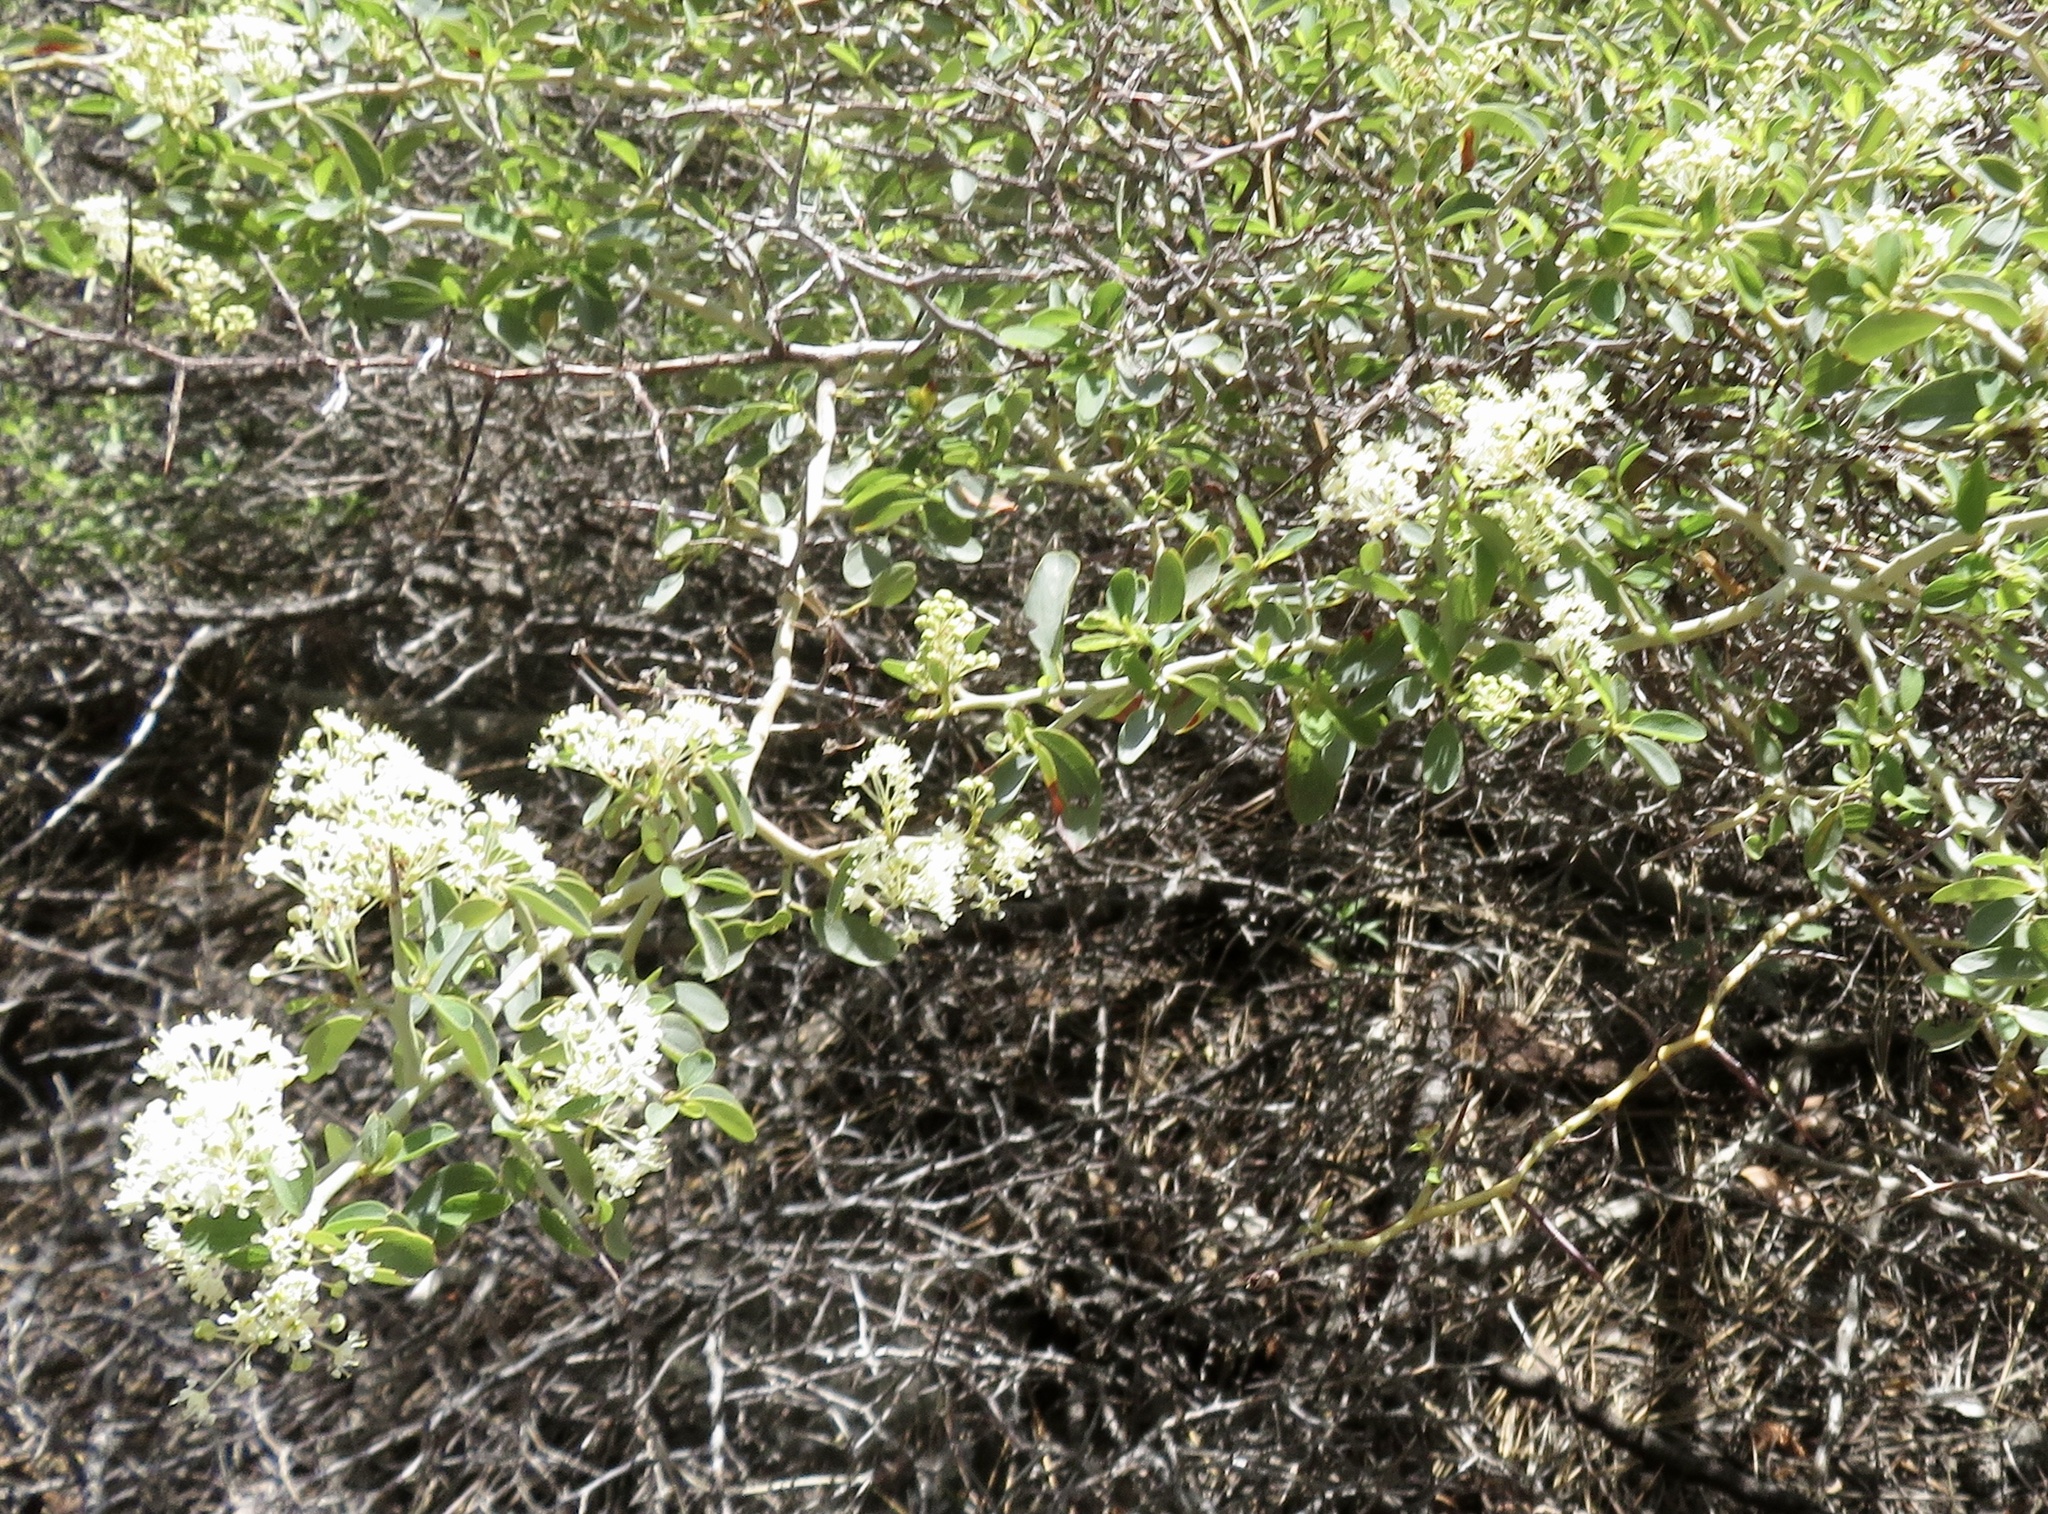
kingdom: Plantae
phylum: Tracheophyta
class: Magnoliopsida
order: Rosales
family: Rhamnaceae
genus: Ceanothus
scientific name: Ceanothus cordulatus
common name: Mountain whitethorn
